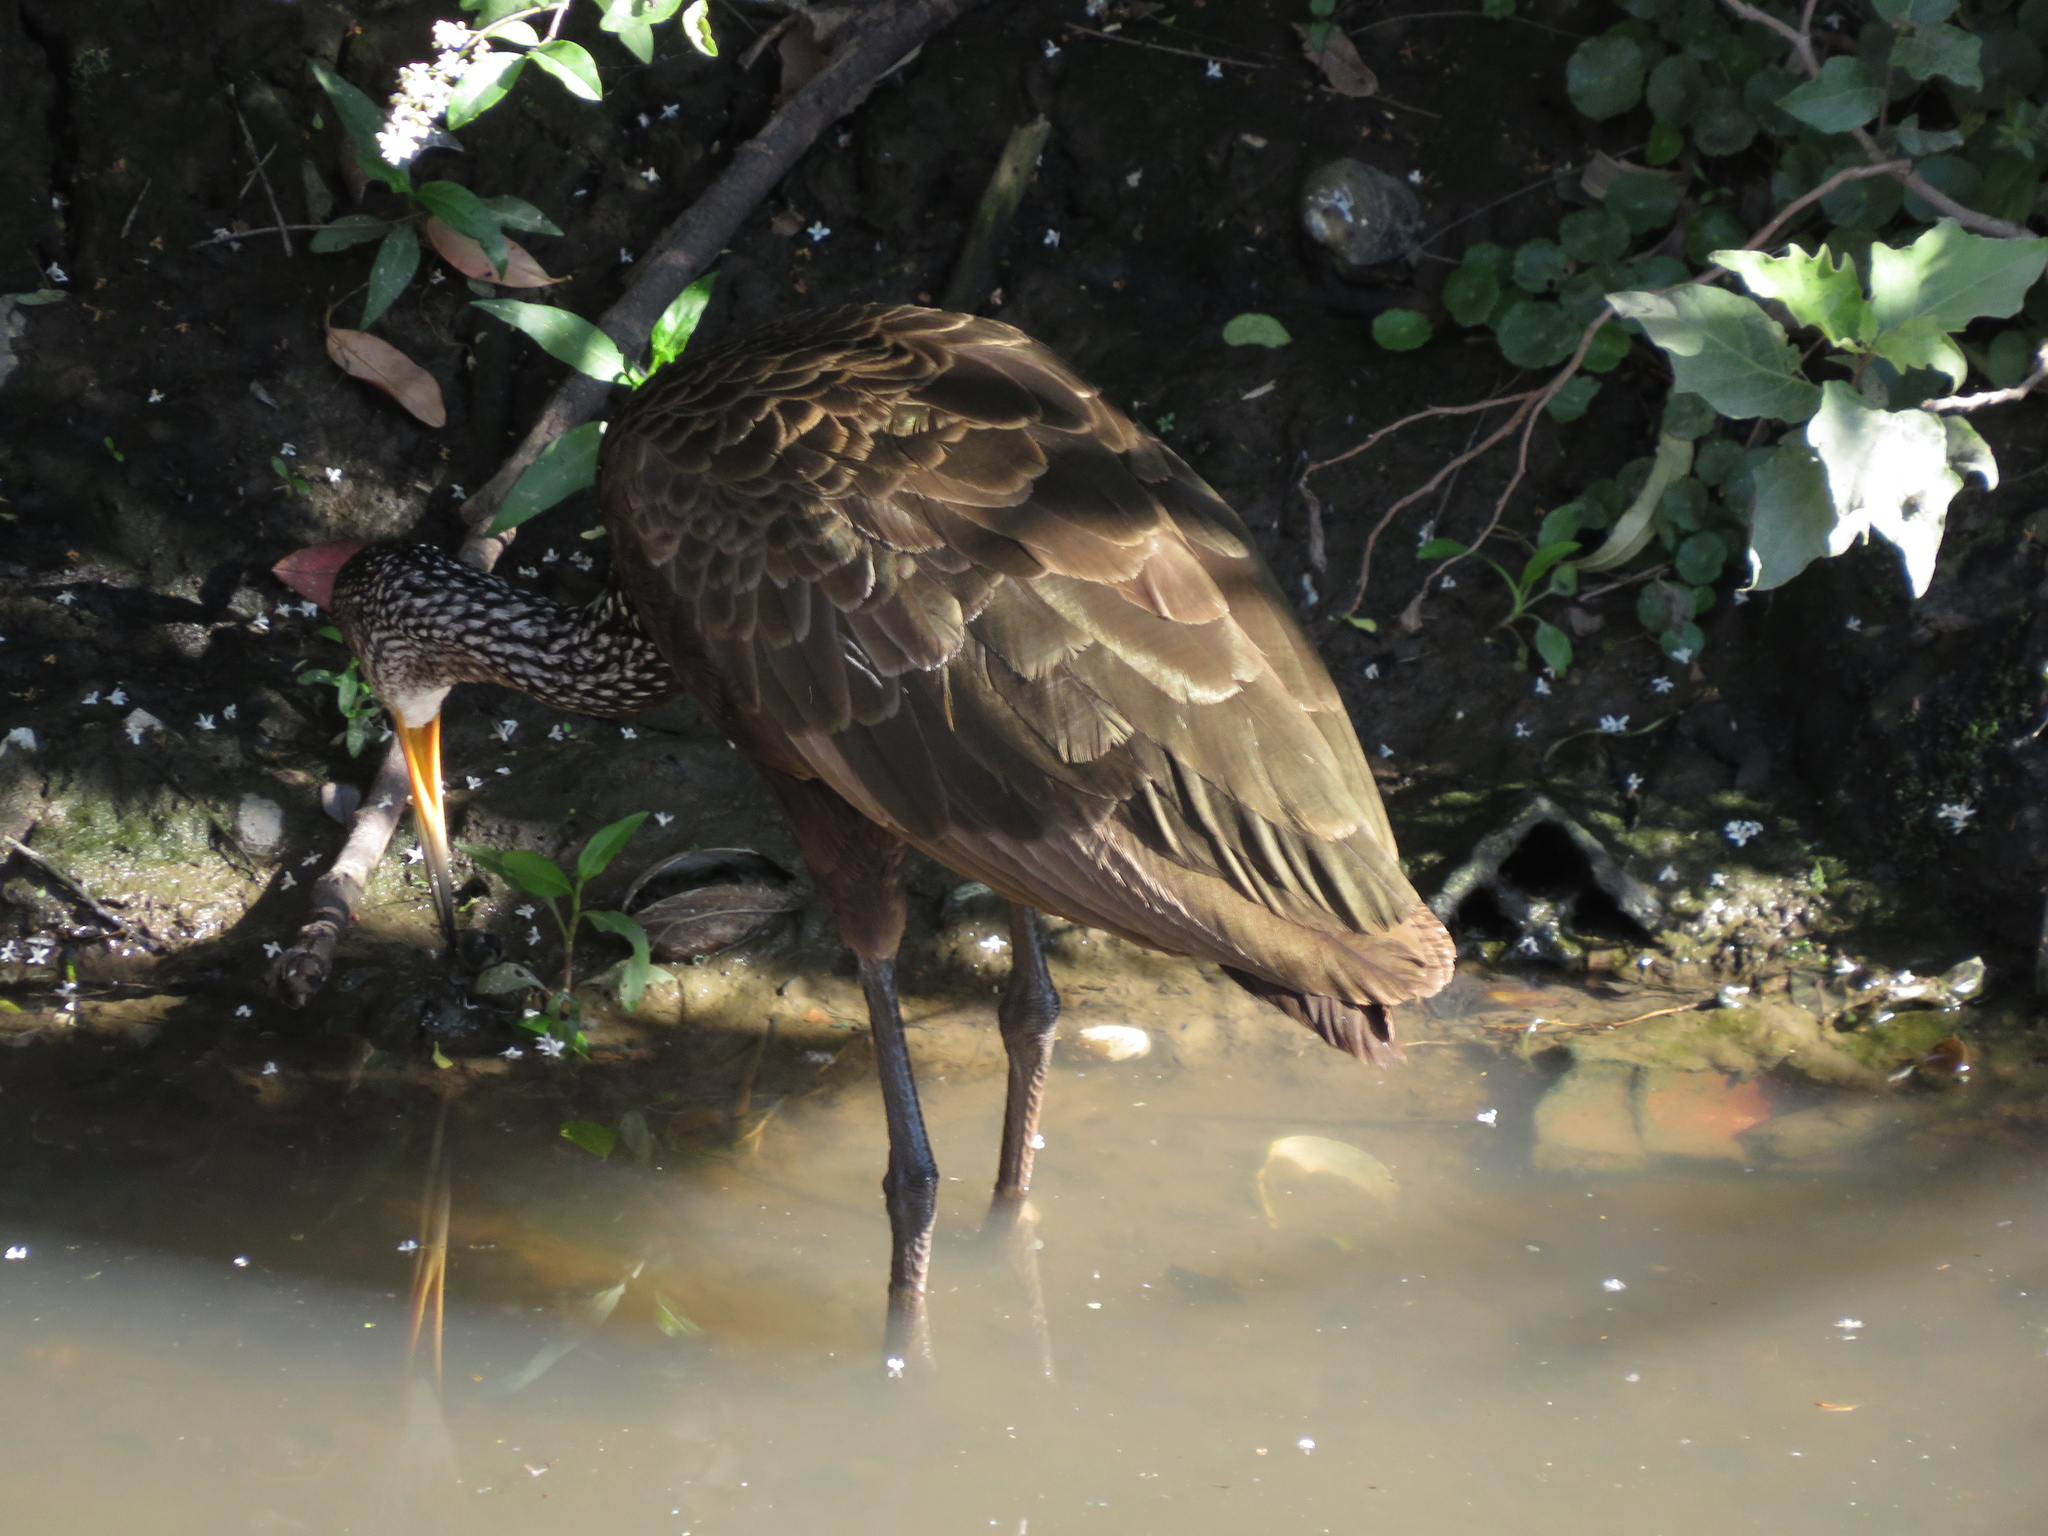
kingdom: Animalia
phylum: Chordata
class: Aves
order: Gruiformes
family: Aramidae
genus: Aramus
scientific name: Aramus guarauna
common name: Limpkin
